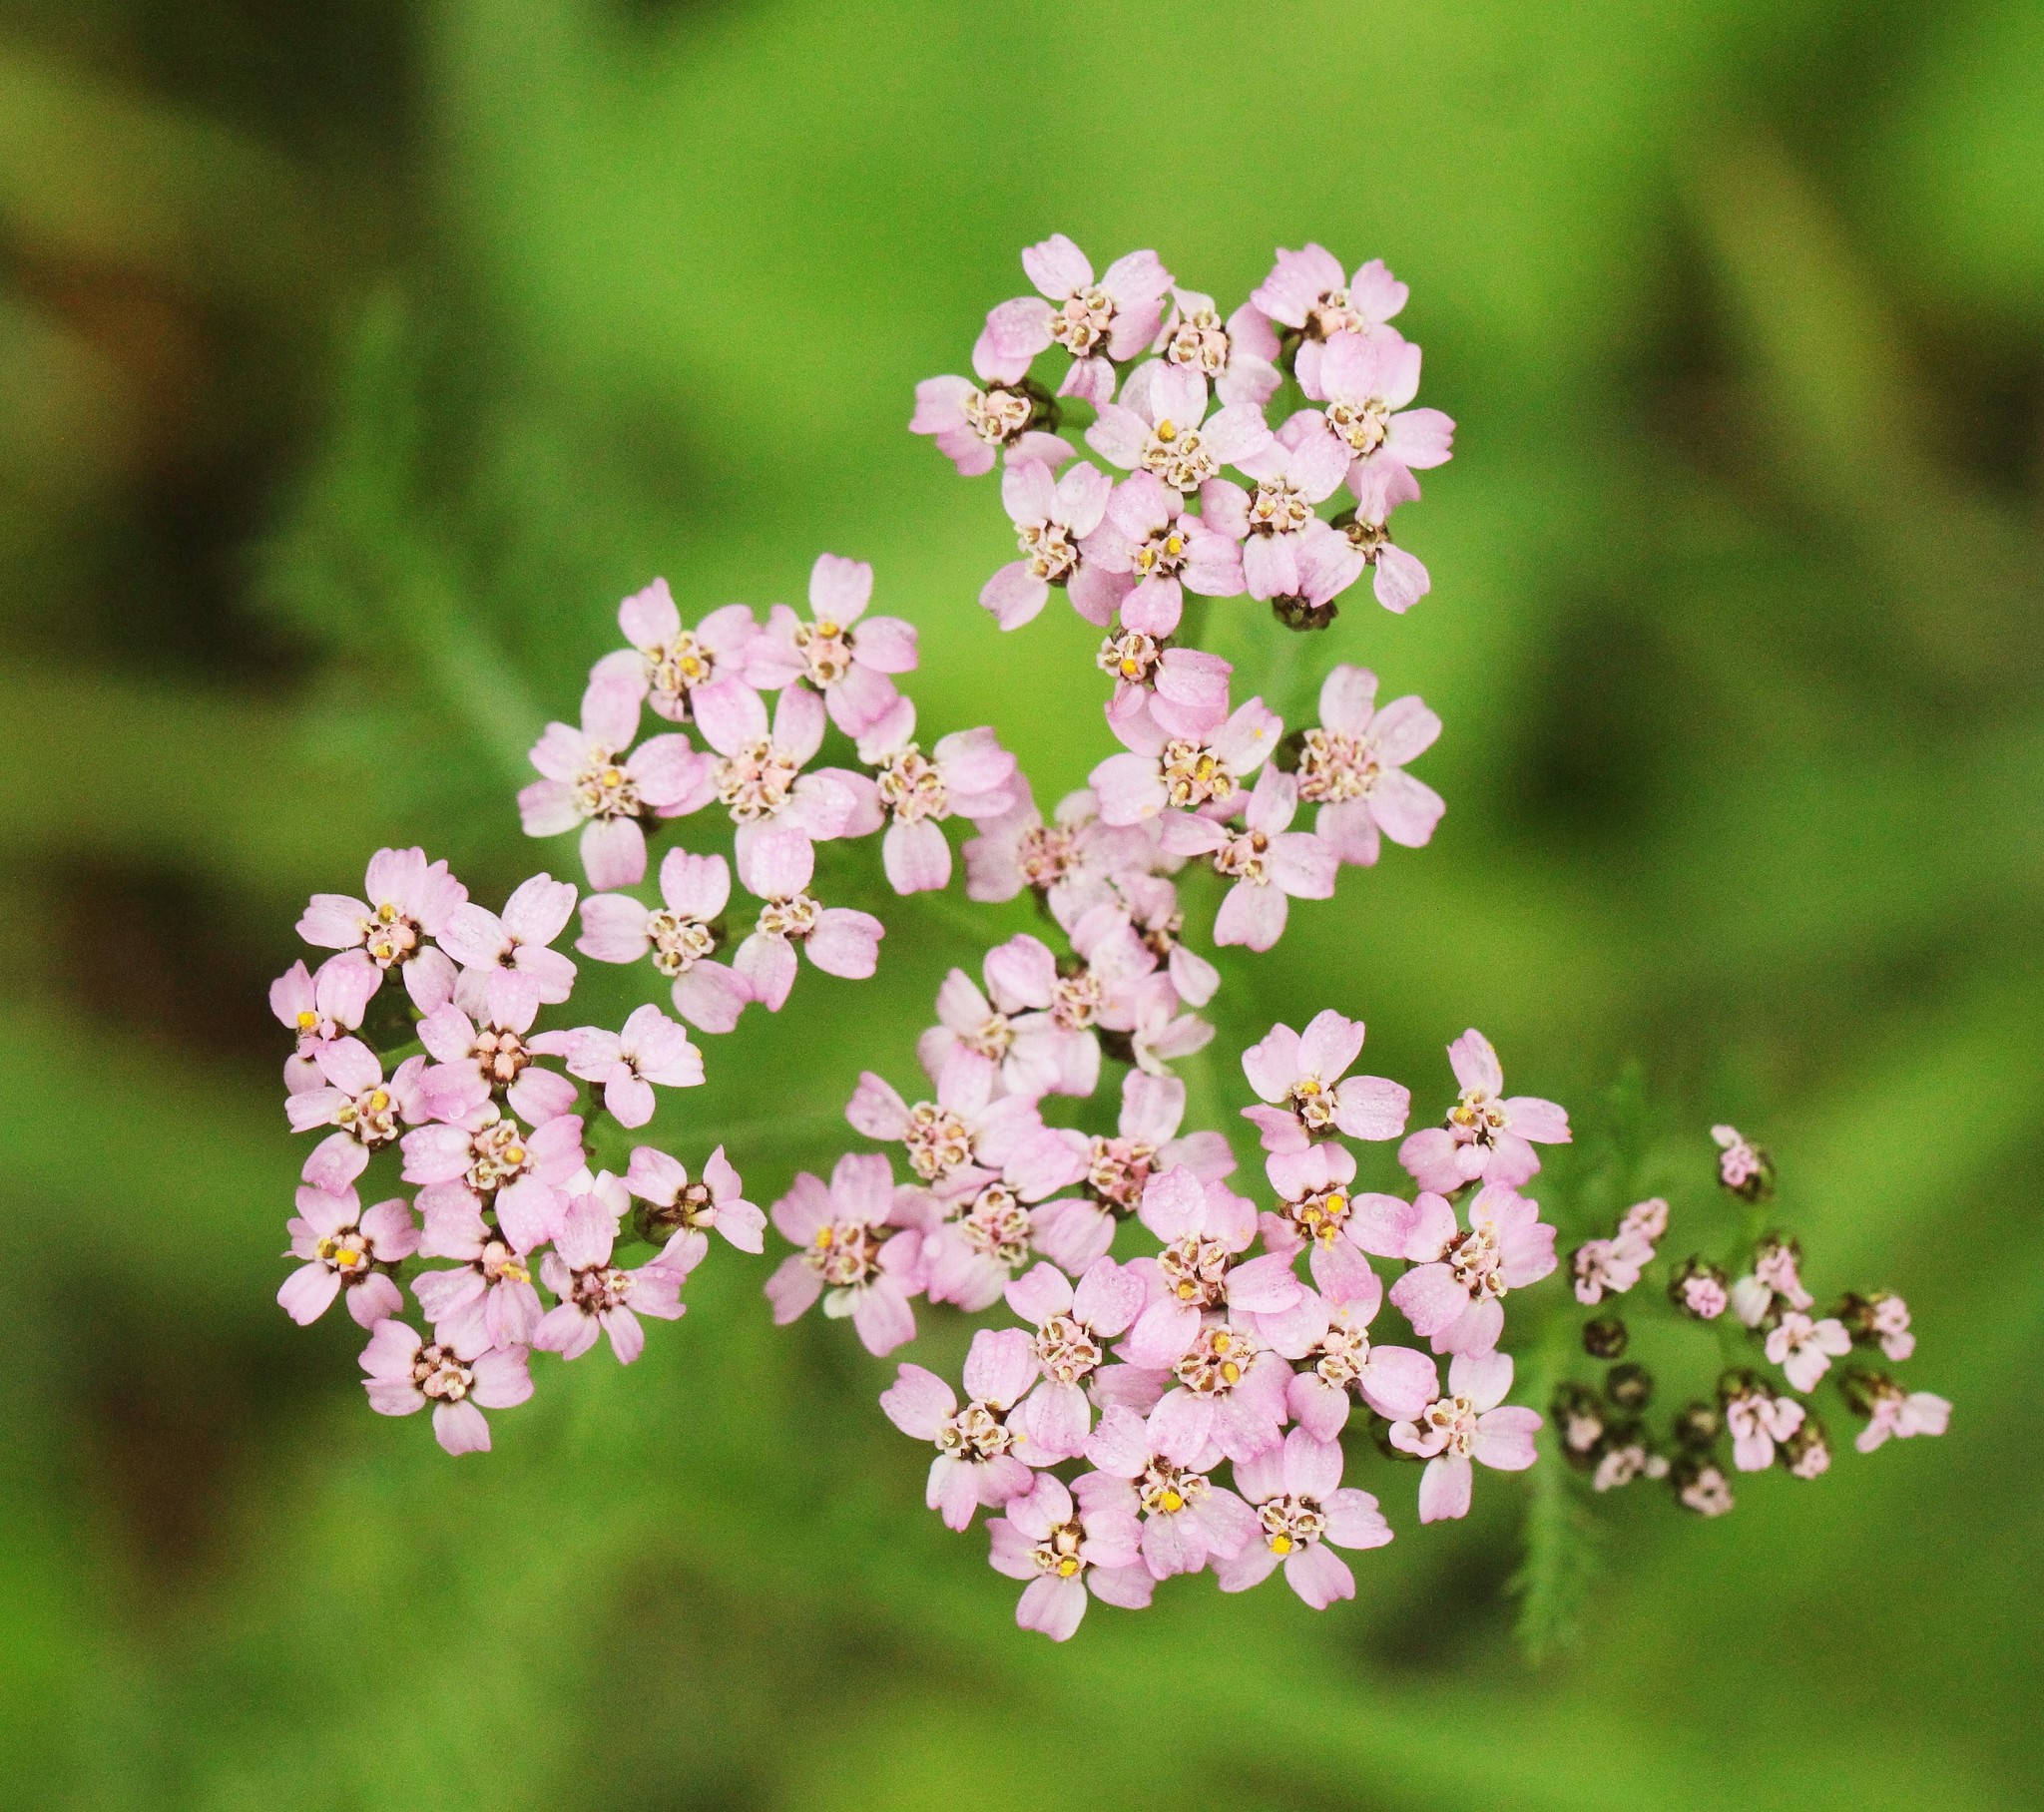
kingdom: Plantae
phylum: Tracheophyta
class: Magnoliopsida
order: Asterales
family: Asteraceae
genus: Achillea
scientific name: Achillea asiatica
